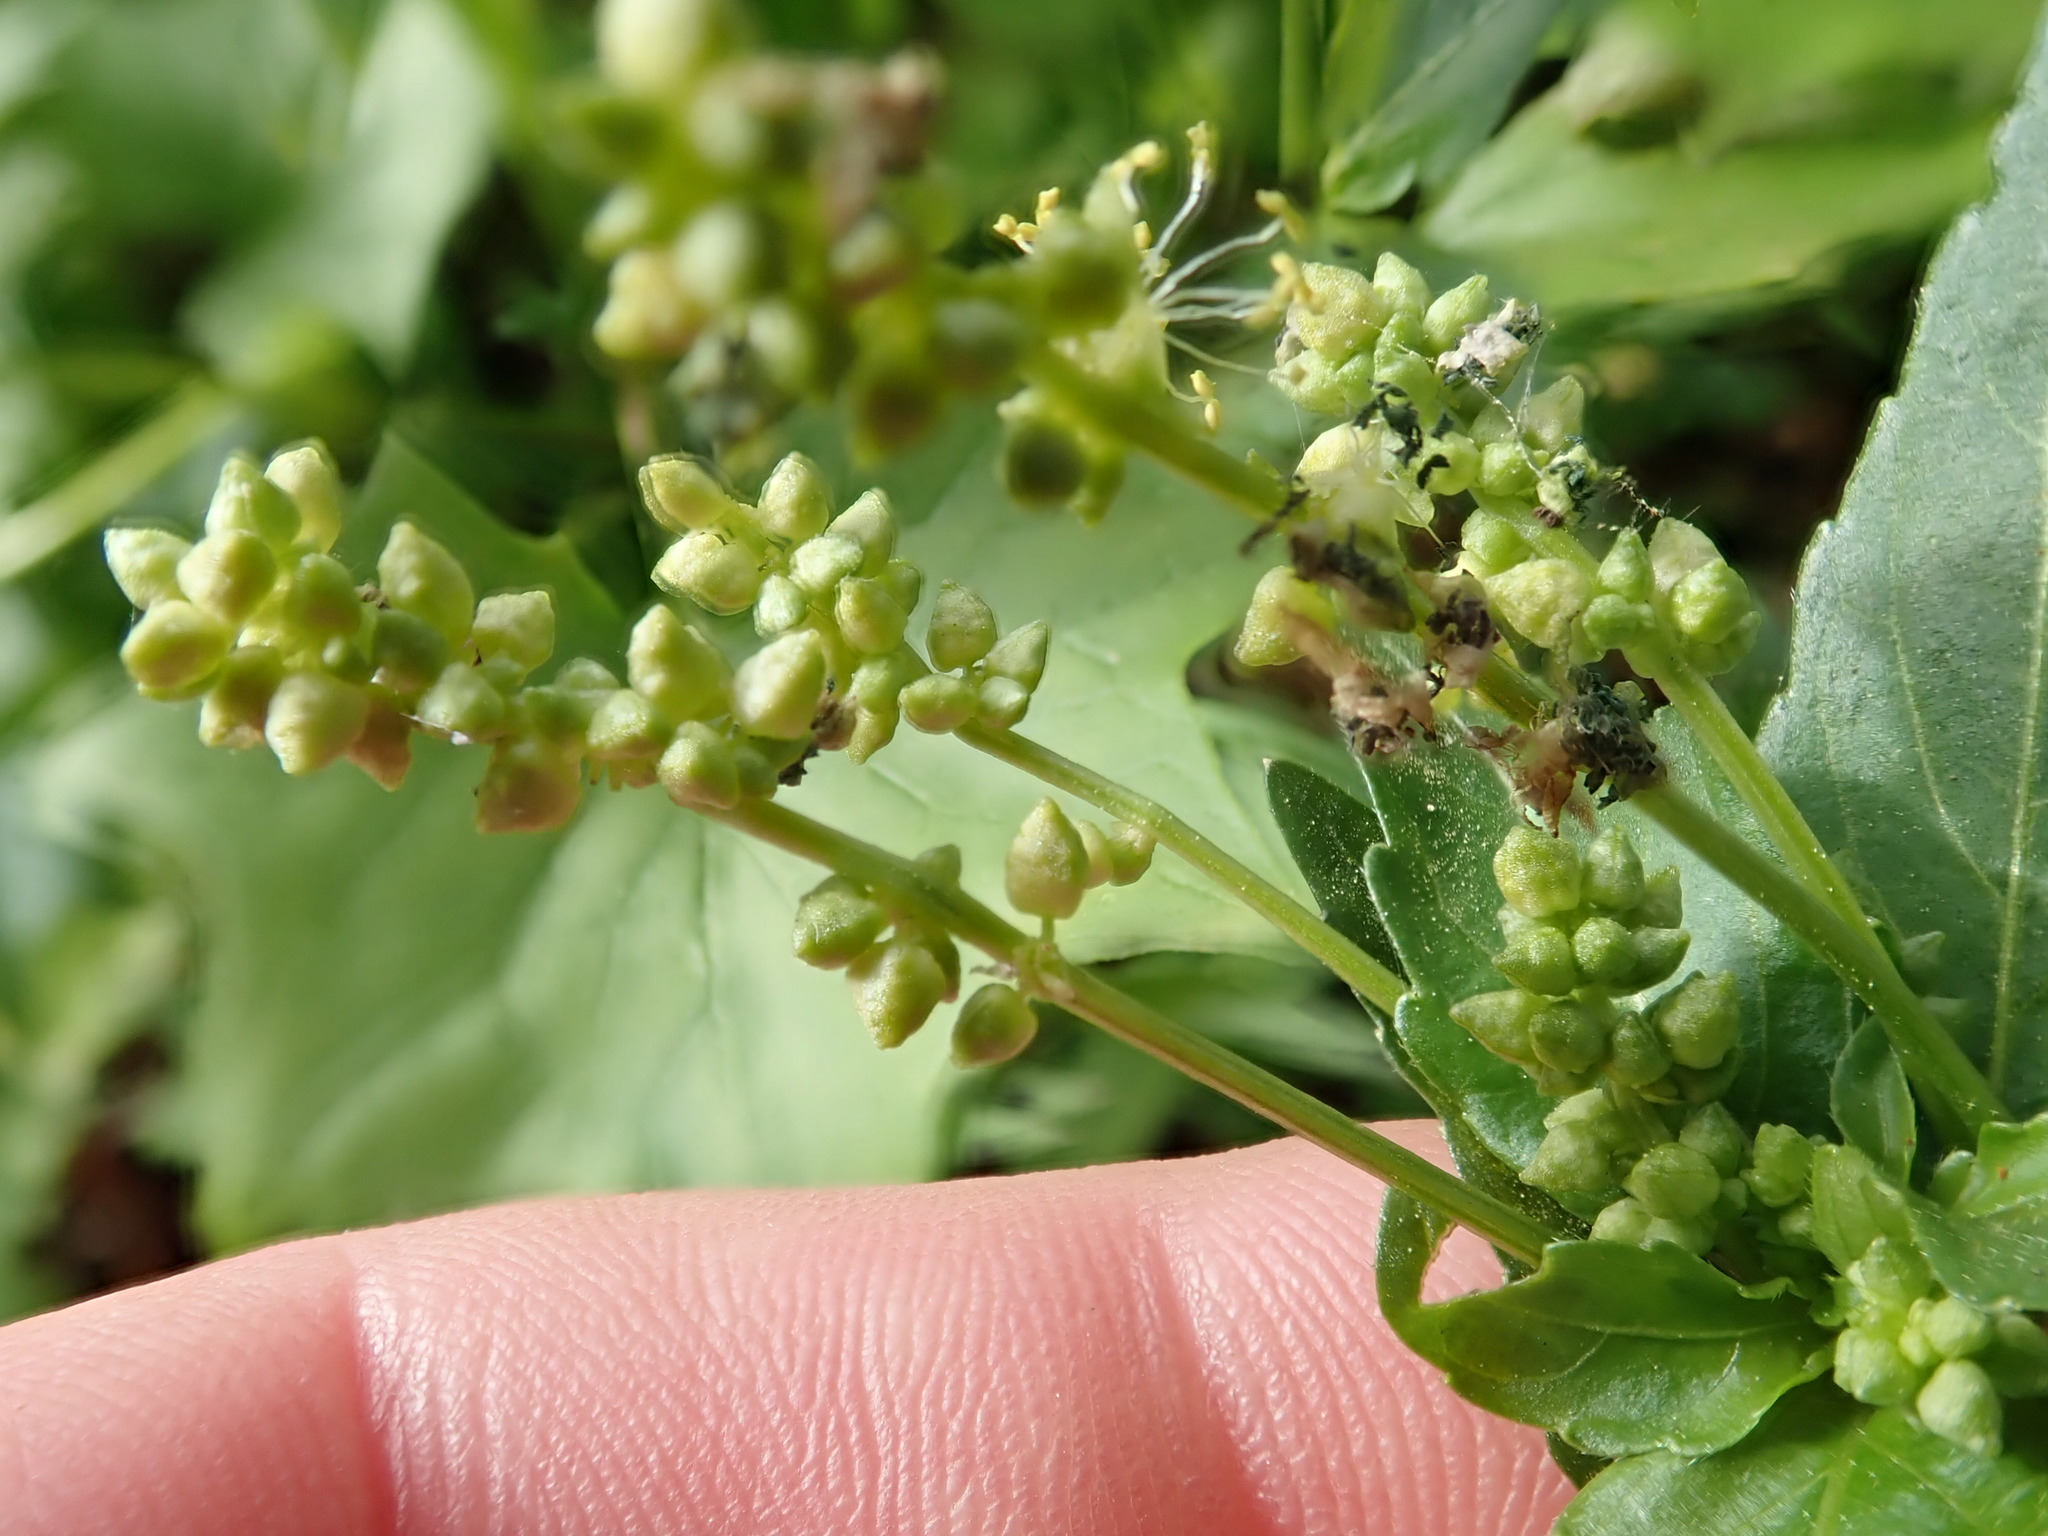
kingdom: Plantae
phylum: Tracheophyta
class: Magnoliopsida
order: Malpighiales
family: Euphorbiaceae
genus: Mercurialis
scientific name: Mercurialis annua
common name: Annual mercury
